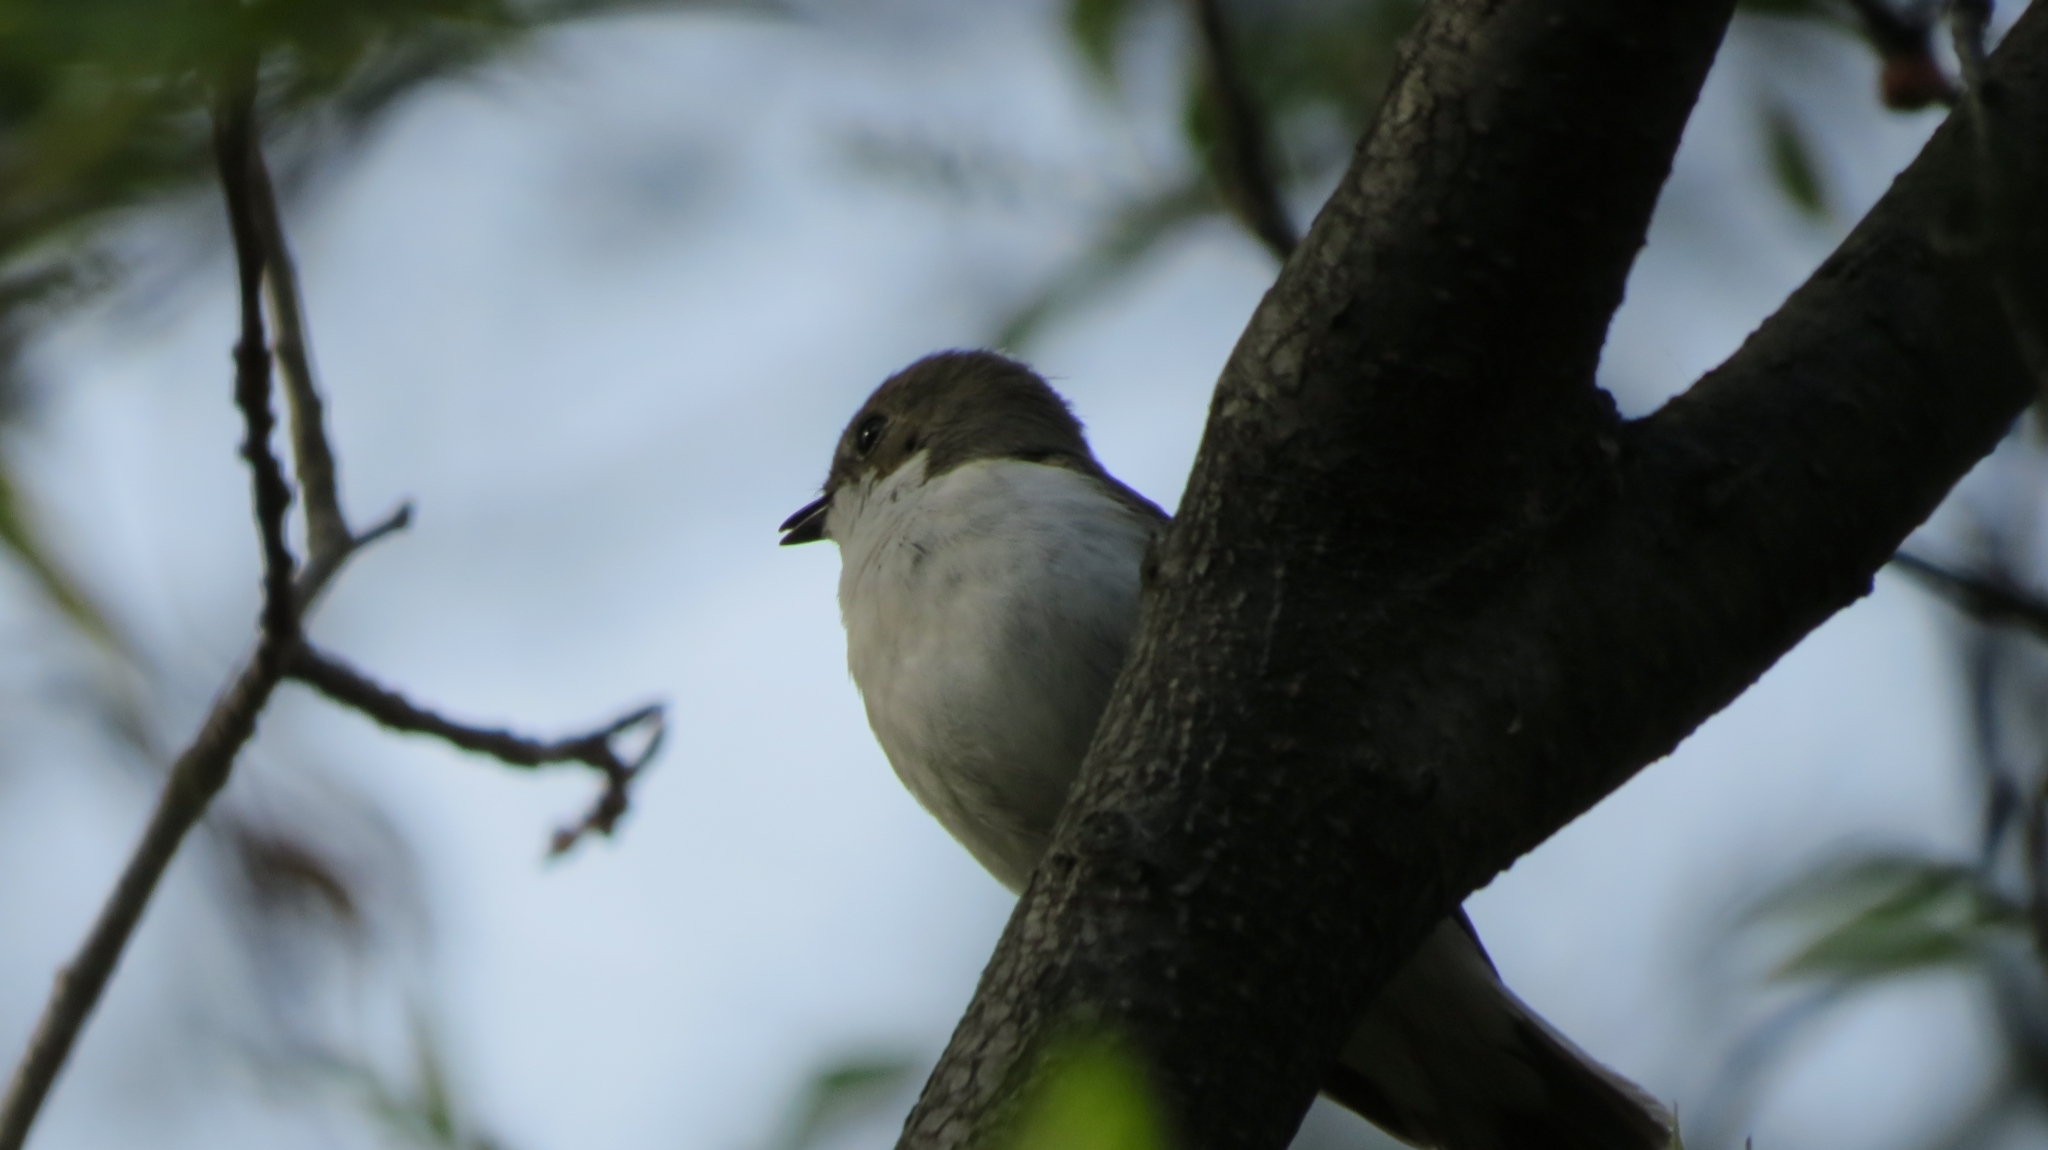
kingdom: Animalia
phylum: Chordata
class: Aves
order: Passeriformes
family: Muscicapidae
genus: Ficedula
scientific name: Ficedula hypoleuca
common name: European pied flycatcher
